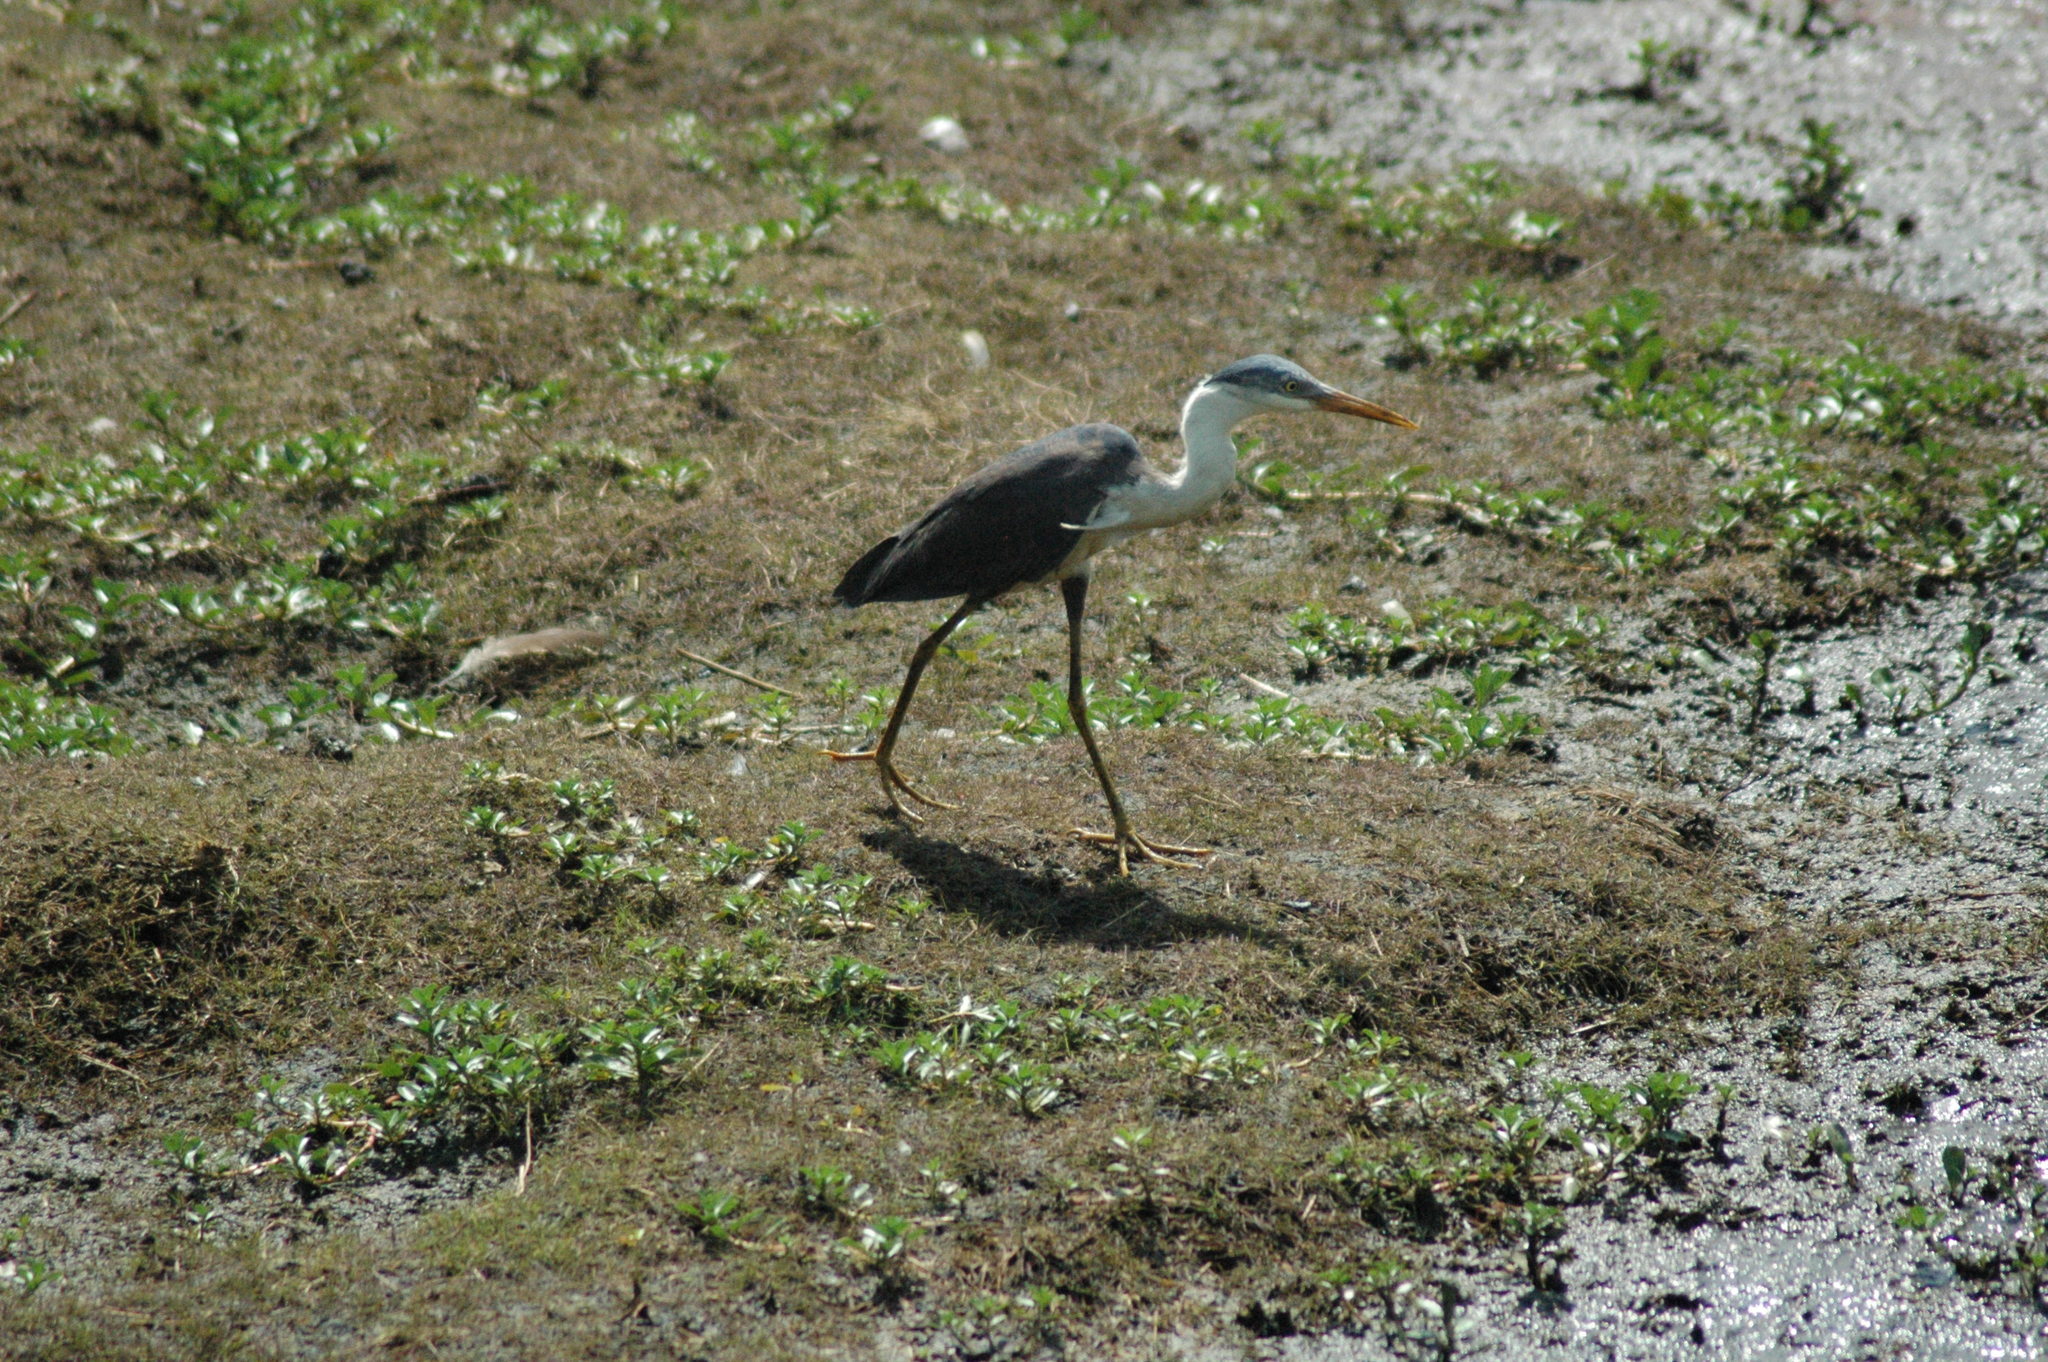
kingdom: Animalia
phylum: Chordata
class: Aves
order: Pelecaniformes
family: Ardeidae
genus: Egretta
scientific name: Egretta picata
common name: Pied heron
